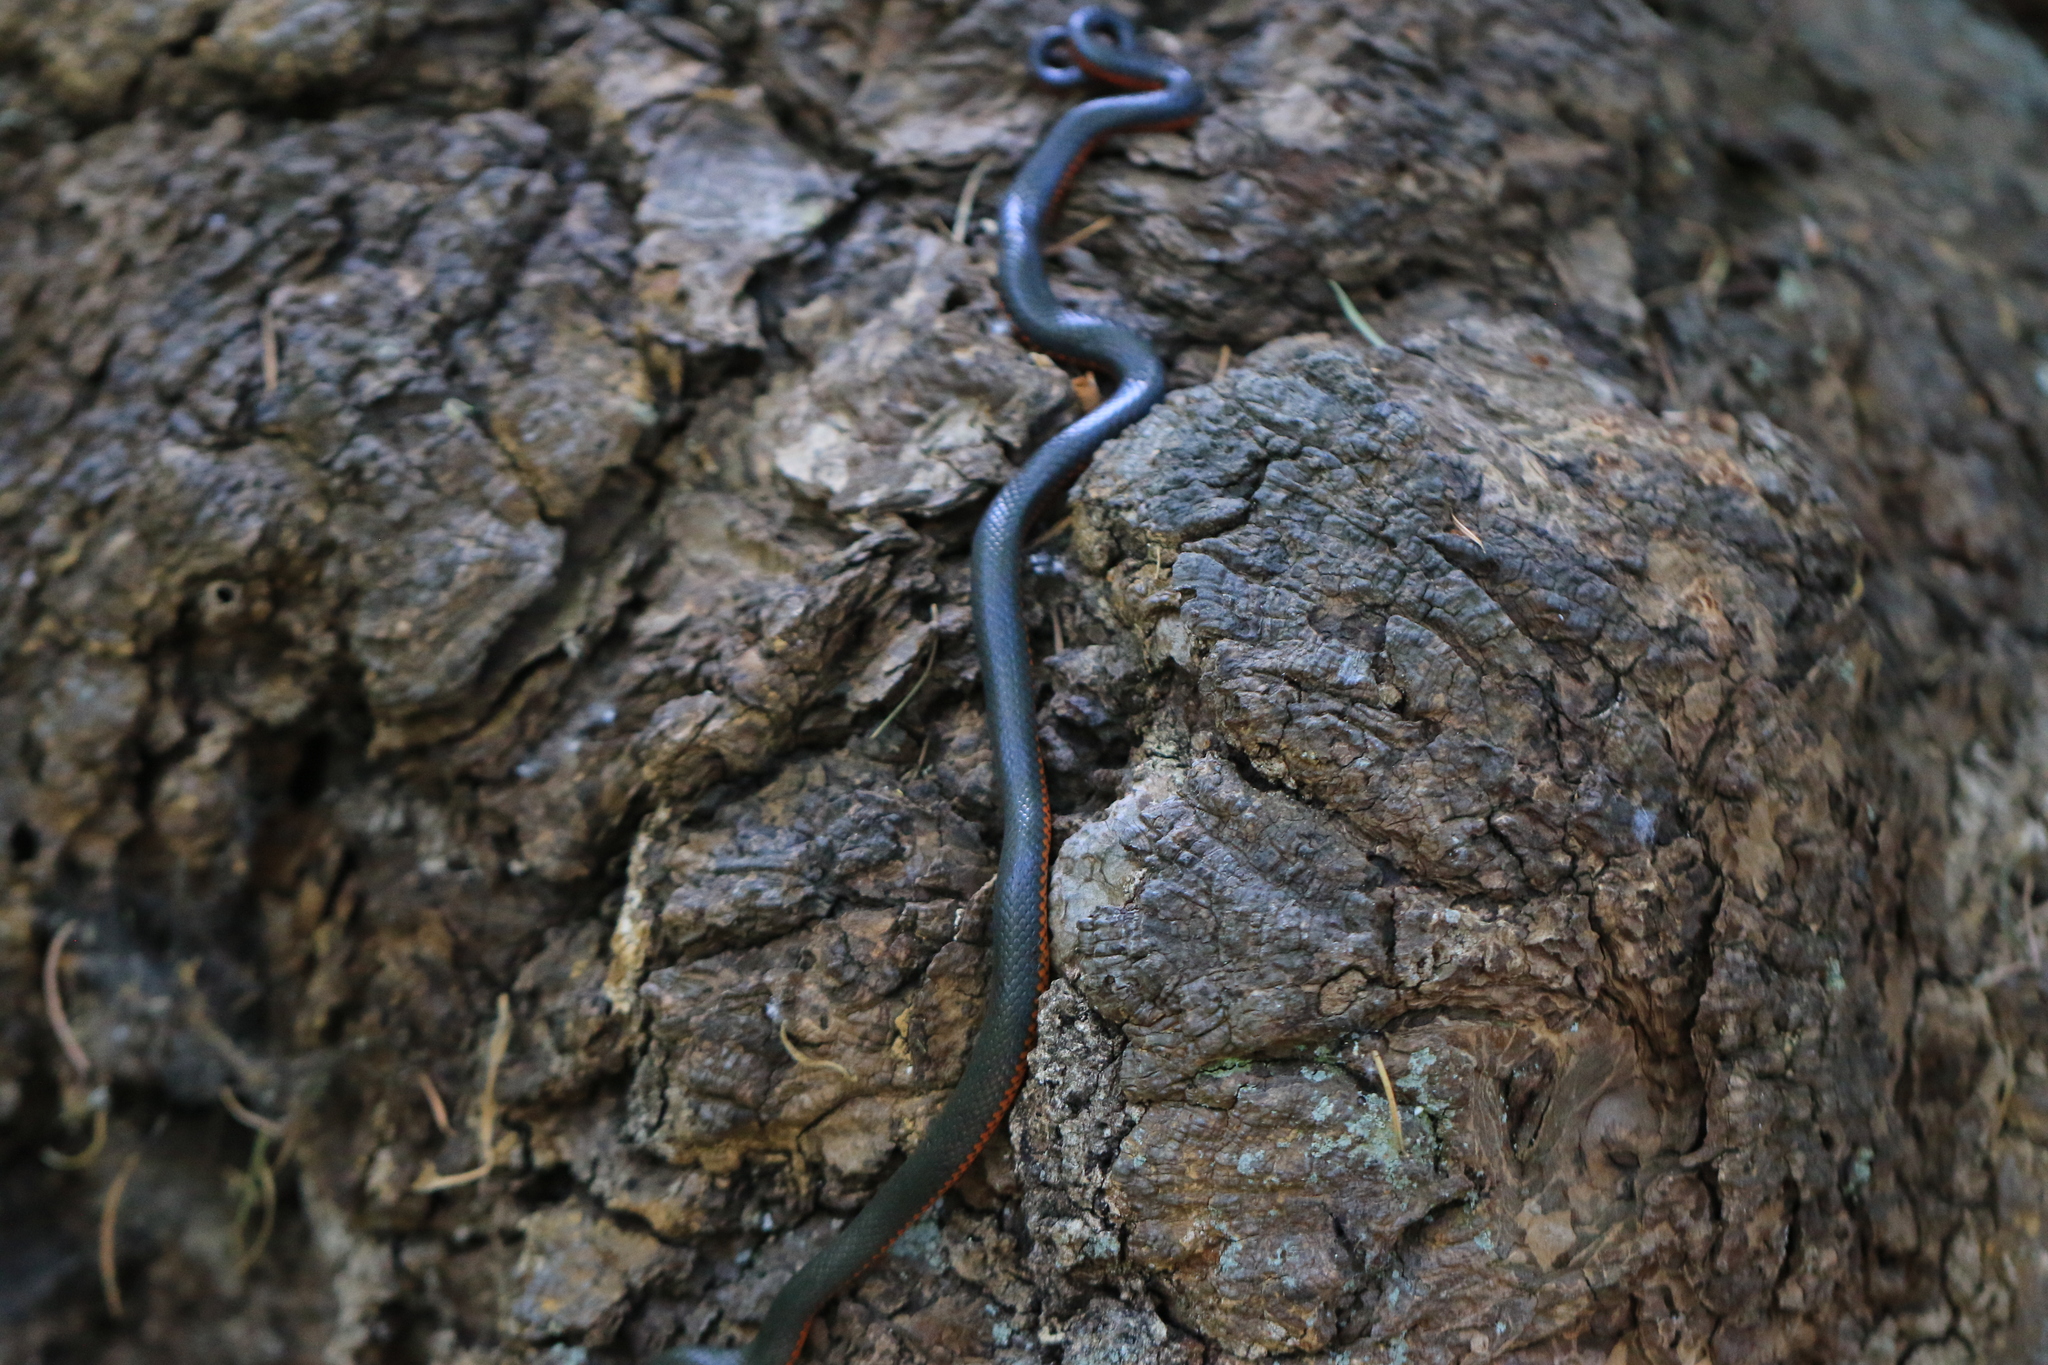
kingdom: Animalia
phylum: Chordata
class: Squamata
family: Colubridae
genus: Diadophis
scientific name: Diadophis punctatus
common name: Ringneck snake
